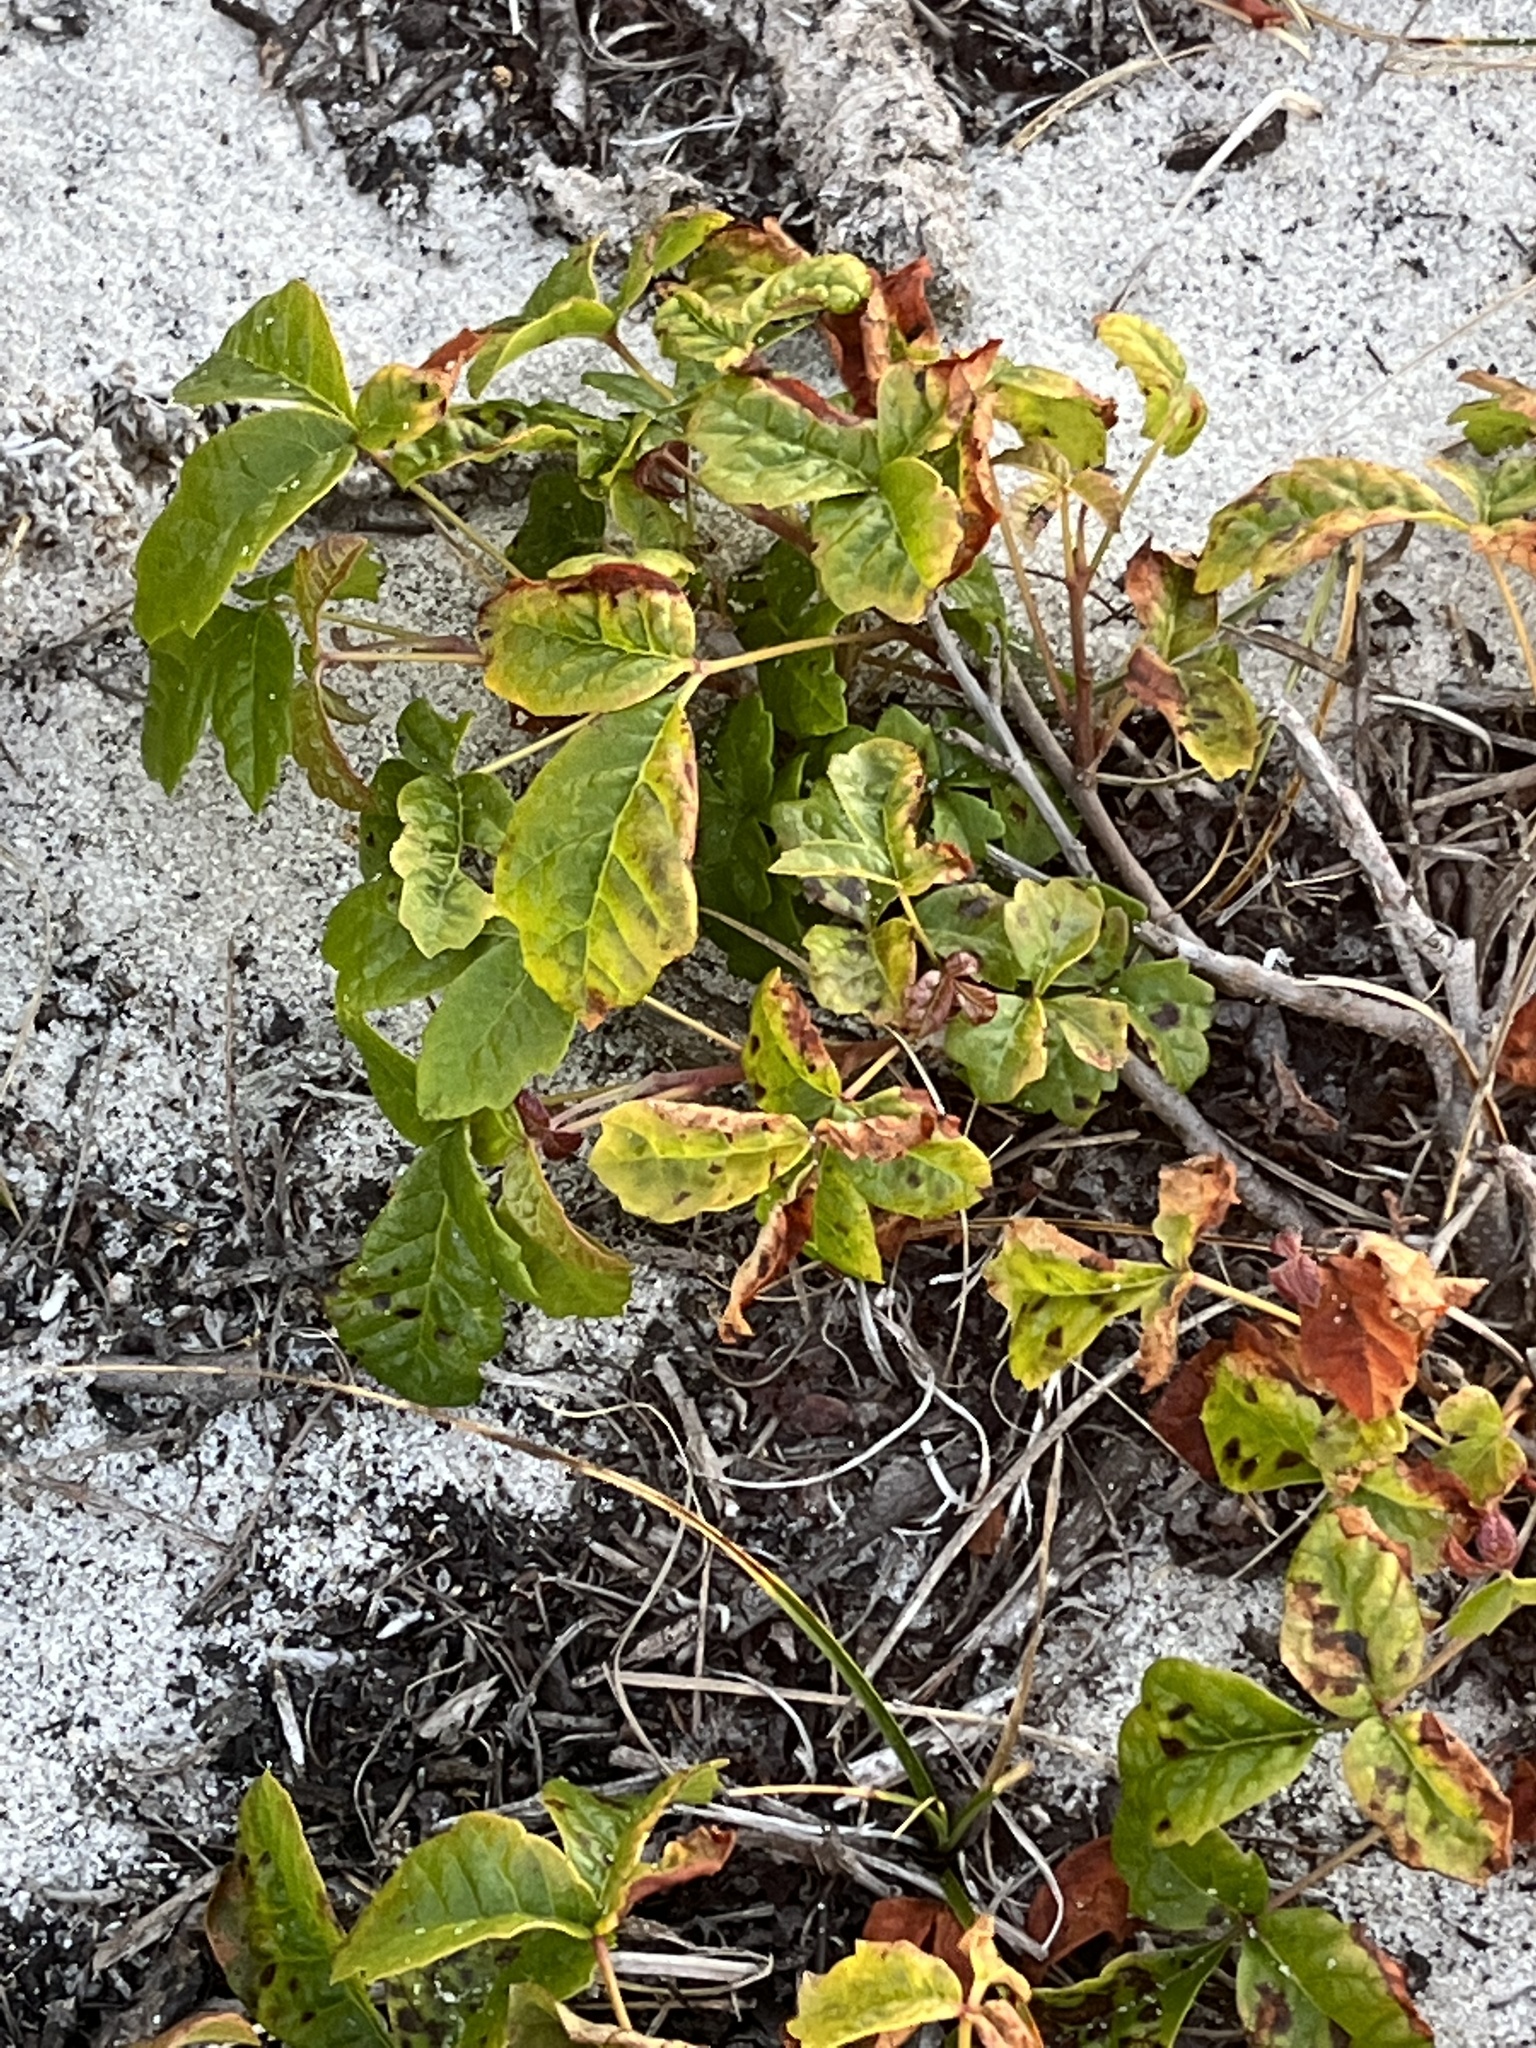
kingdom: Plantae
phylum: Tracheophyta
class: Magnoliopsida
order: Sapindales
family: Anacardiaceae
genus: Toxicodendron
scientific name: Toxicodendron diversilobum
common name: Pacific poison-oak
